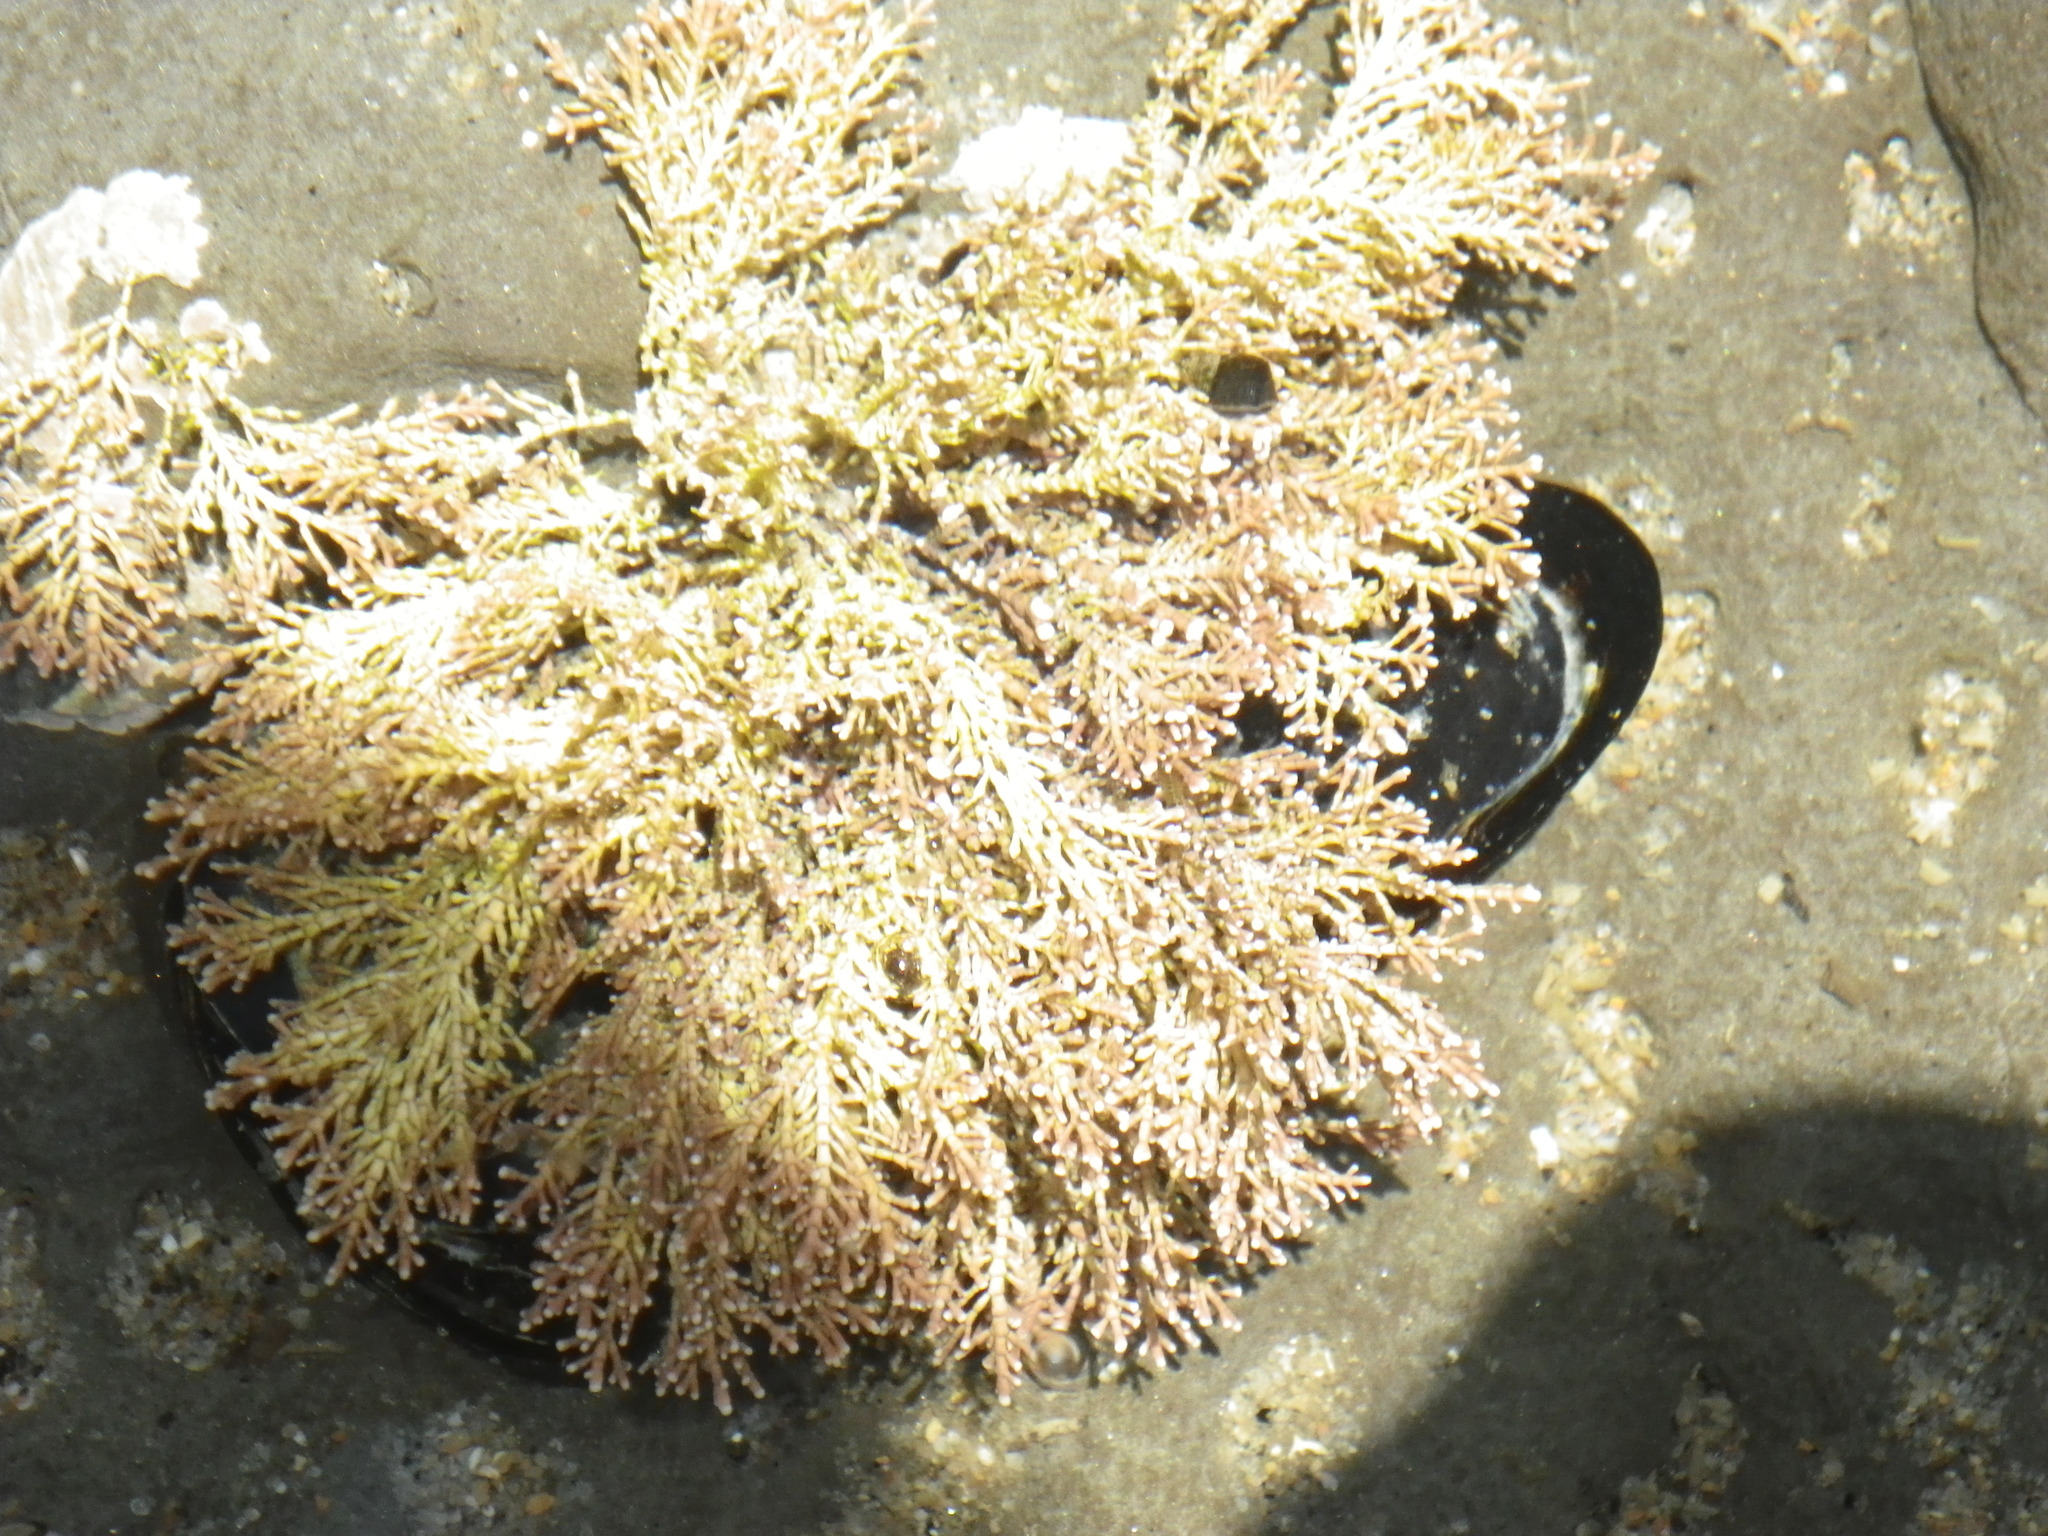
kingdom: Plantae
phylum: Rhodophyta
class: Florideophyceae
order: Corallinales
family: Corallinaceae
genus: Corallina
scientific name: Corallina officinalis
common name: Coral weed
